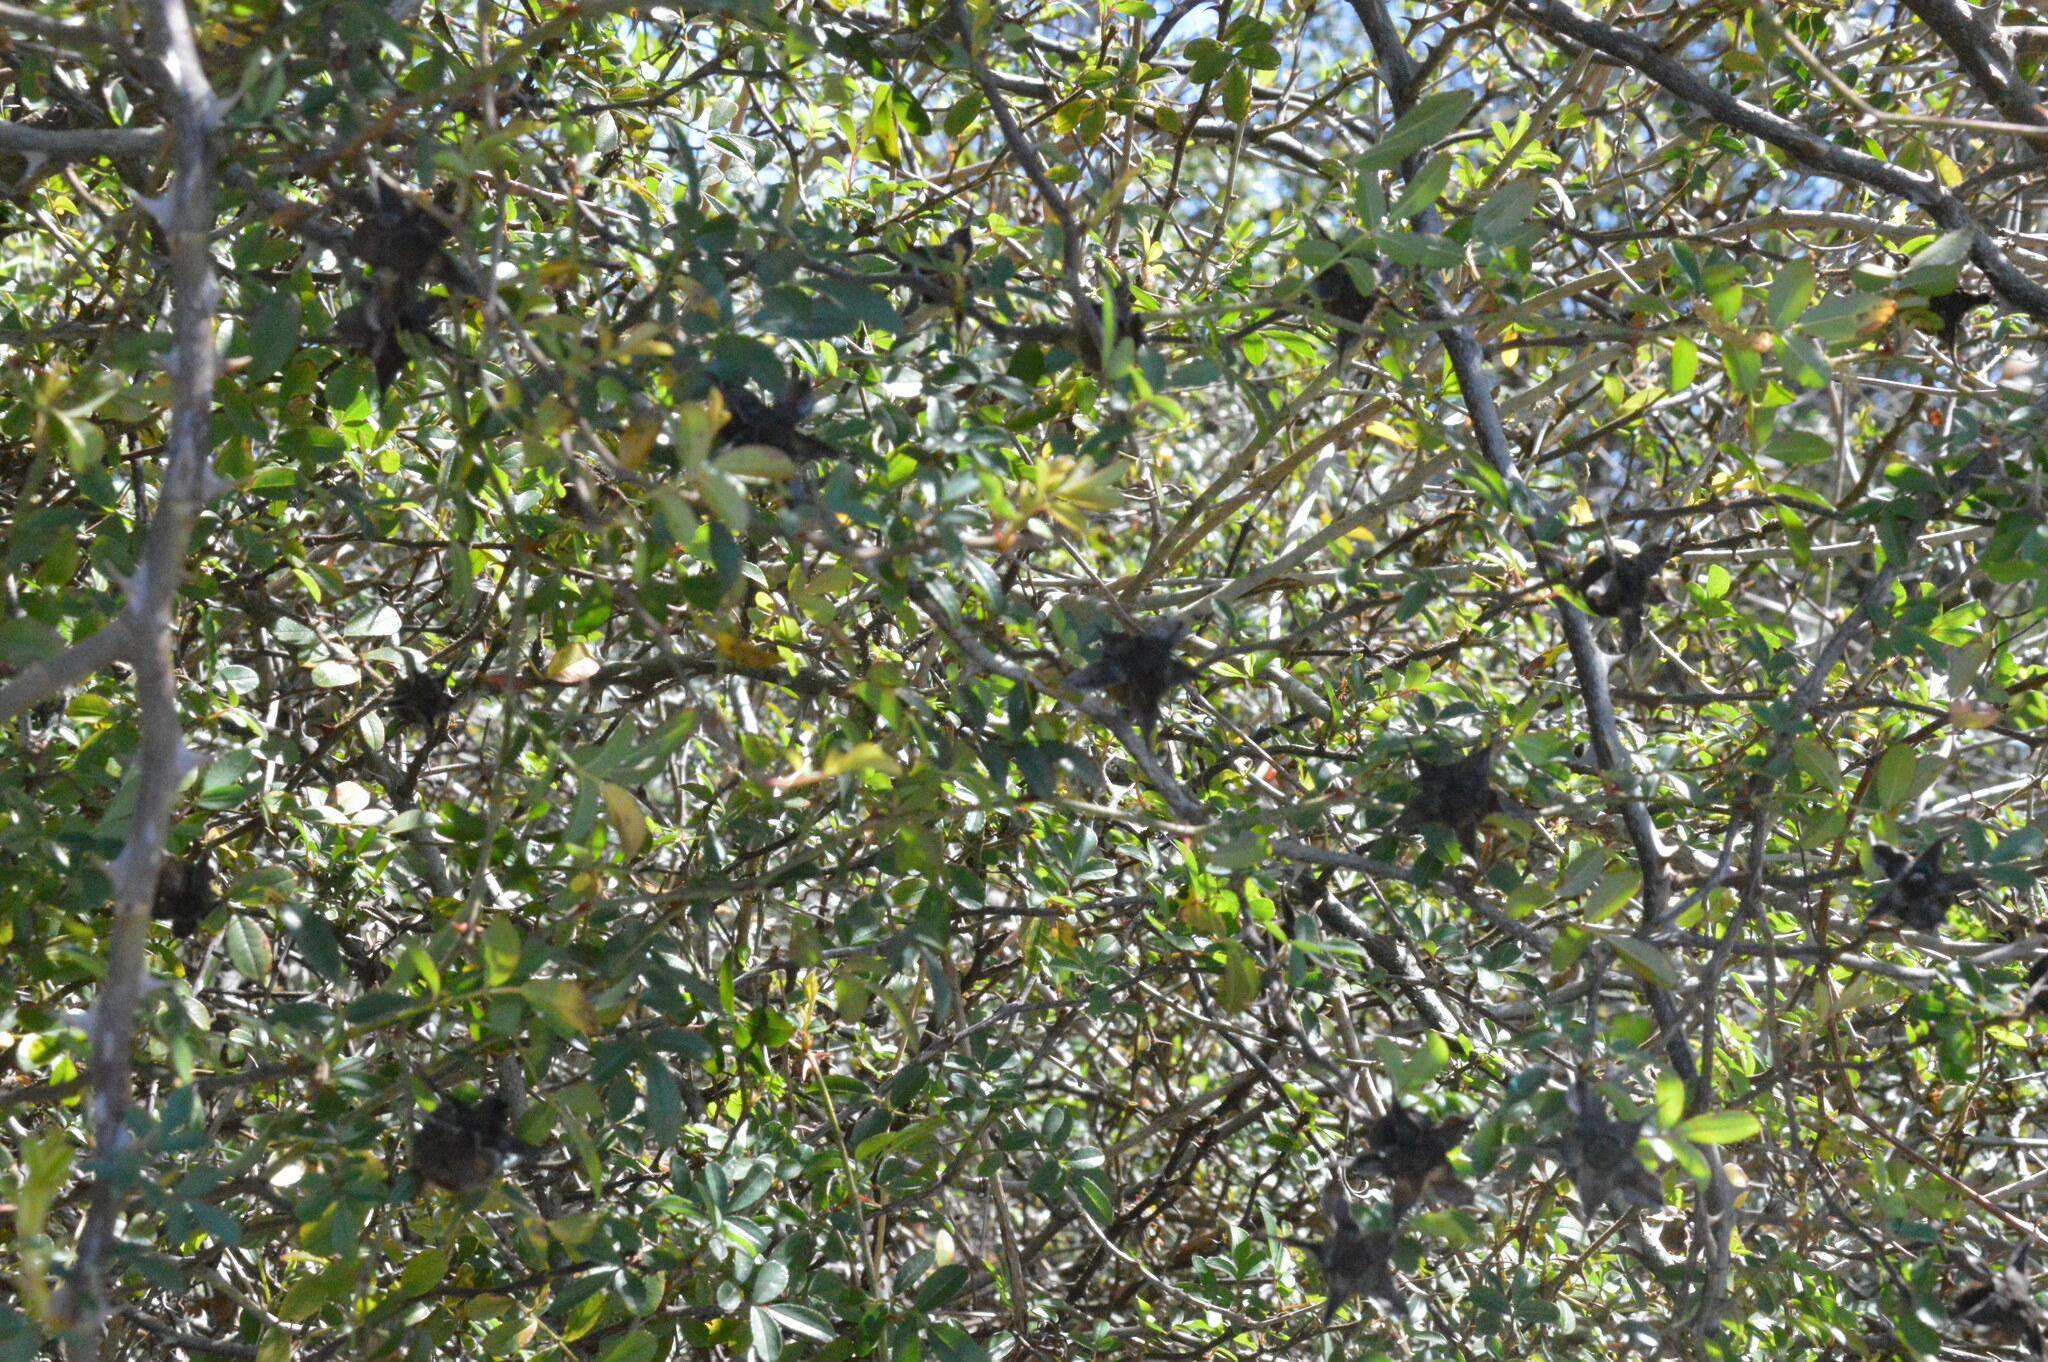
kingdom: Plantae
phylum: Tracheophyta
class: Magnoliopsida
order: Rosales
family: Rosaceae
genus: Rosa
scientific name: Rosa bracteata
